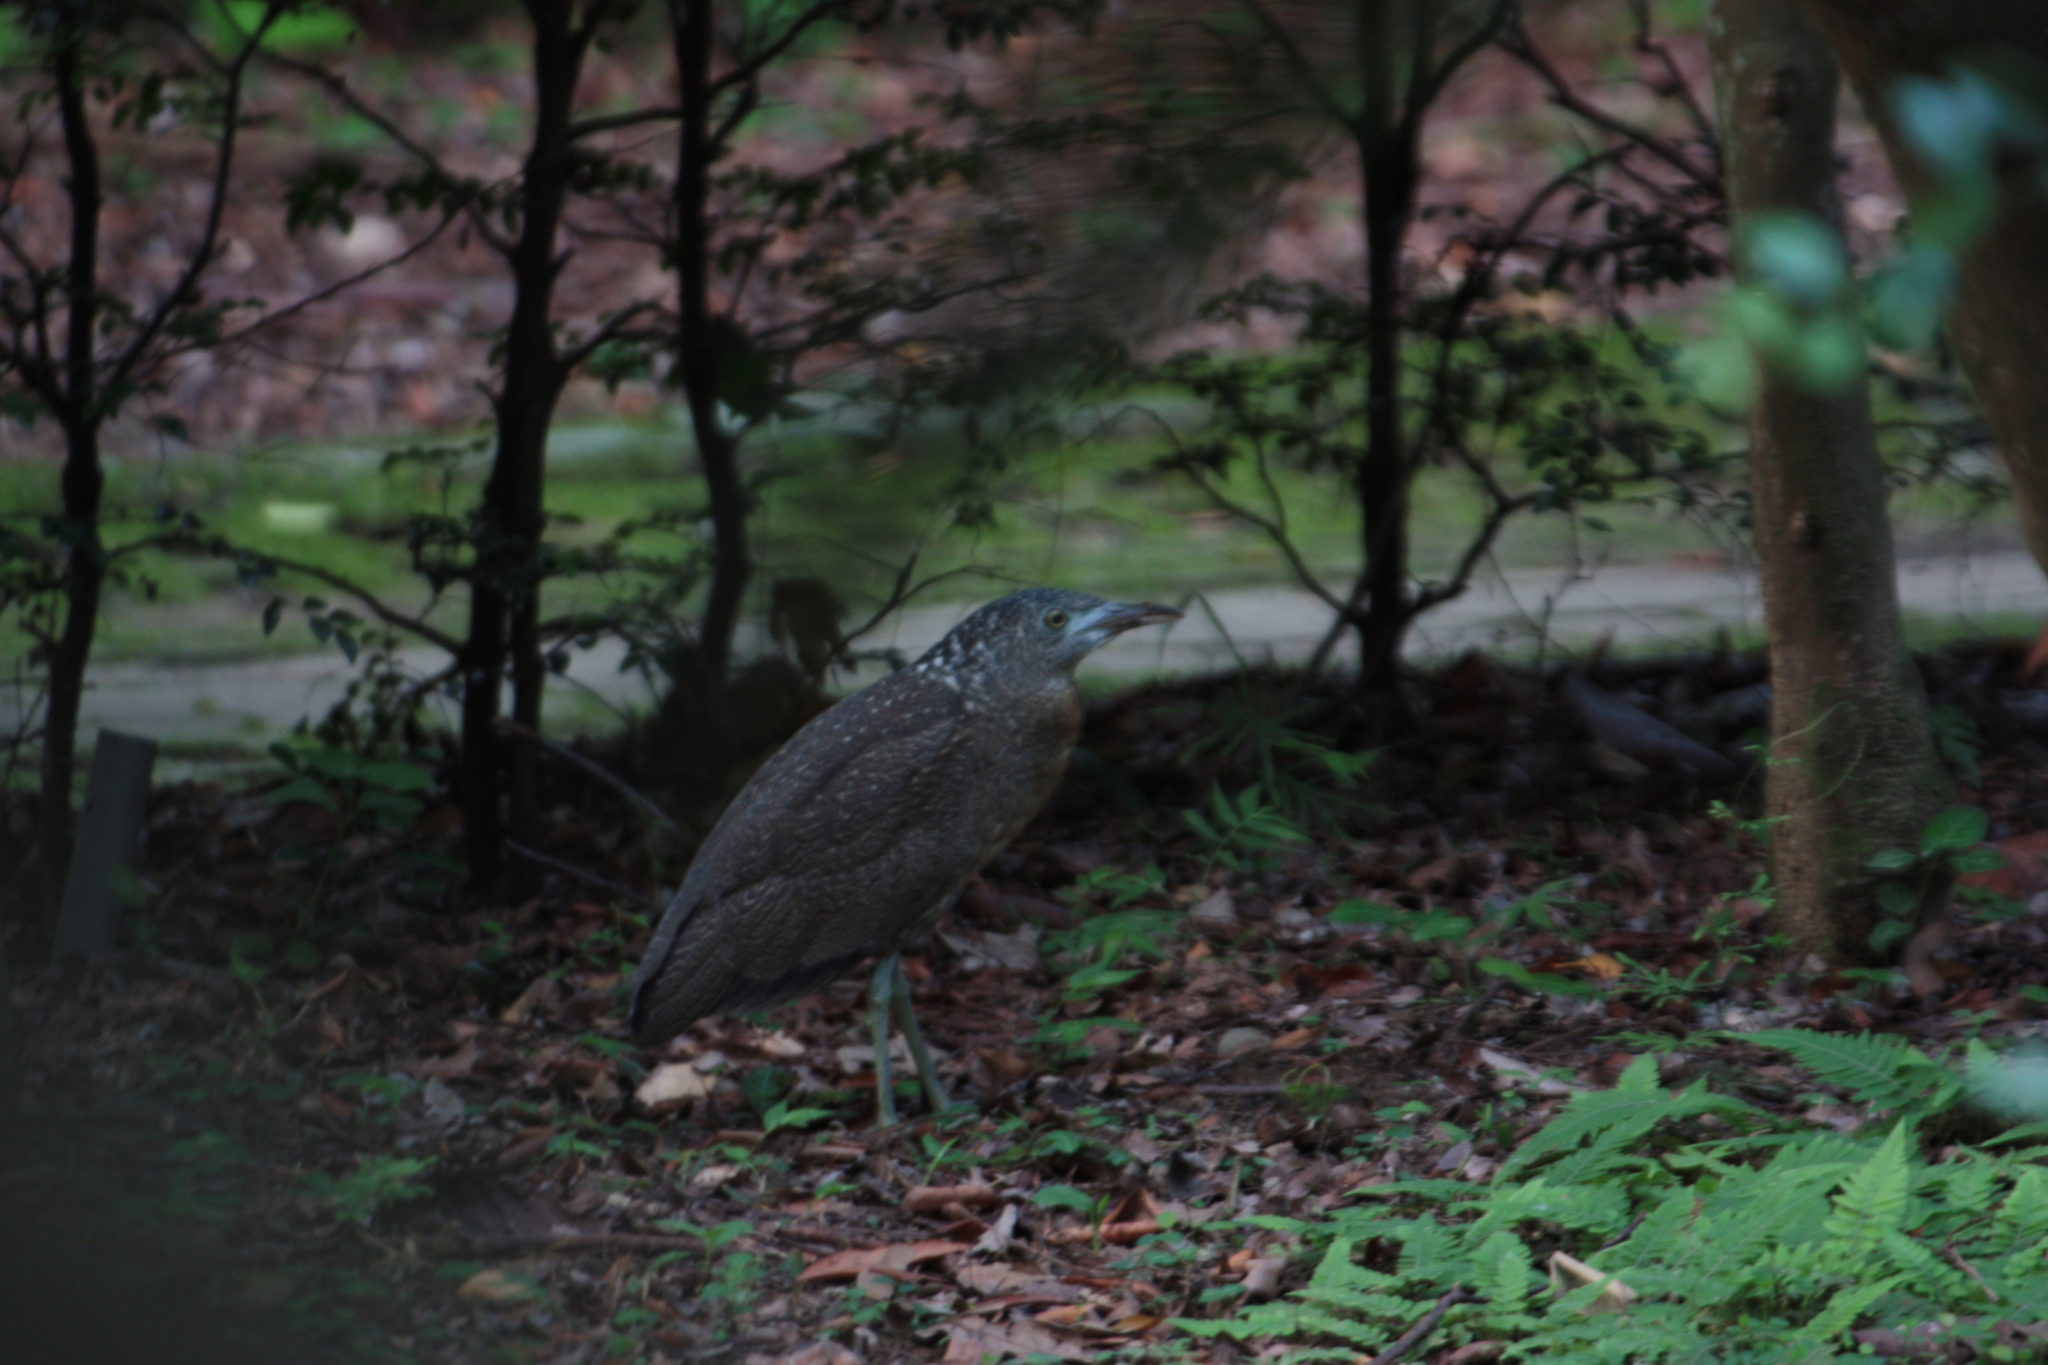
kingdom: Animalia
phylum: Chordata
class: Aves
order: Pelecaniformes
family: Ardeidae
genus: Gorsachius
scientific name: Gorsachius melanolophus
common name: Malayan night heron
